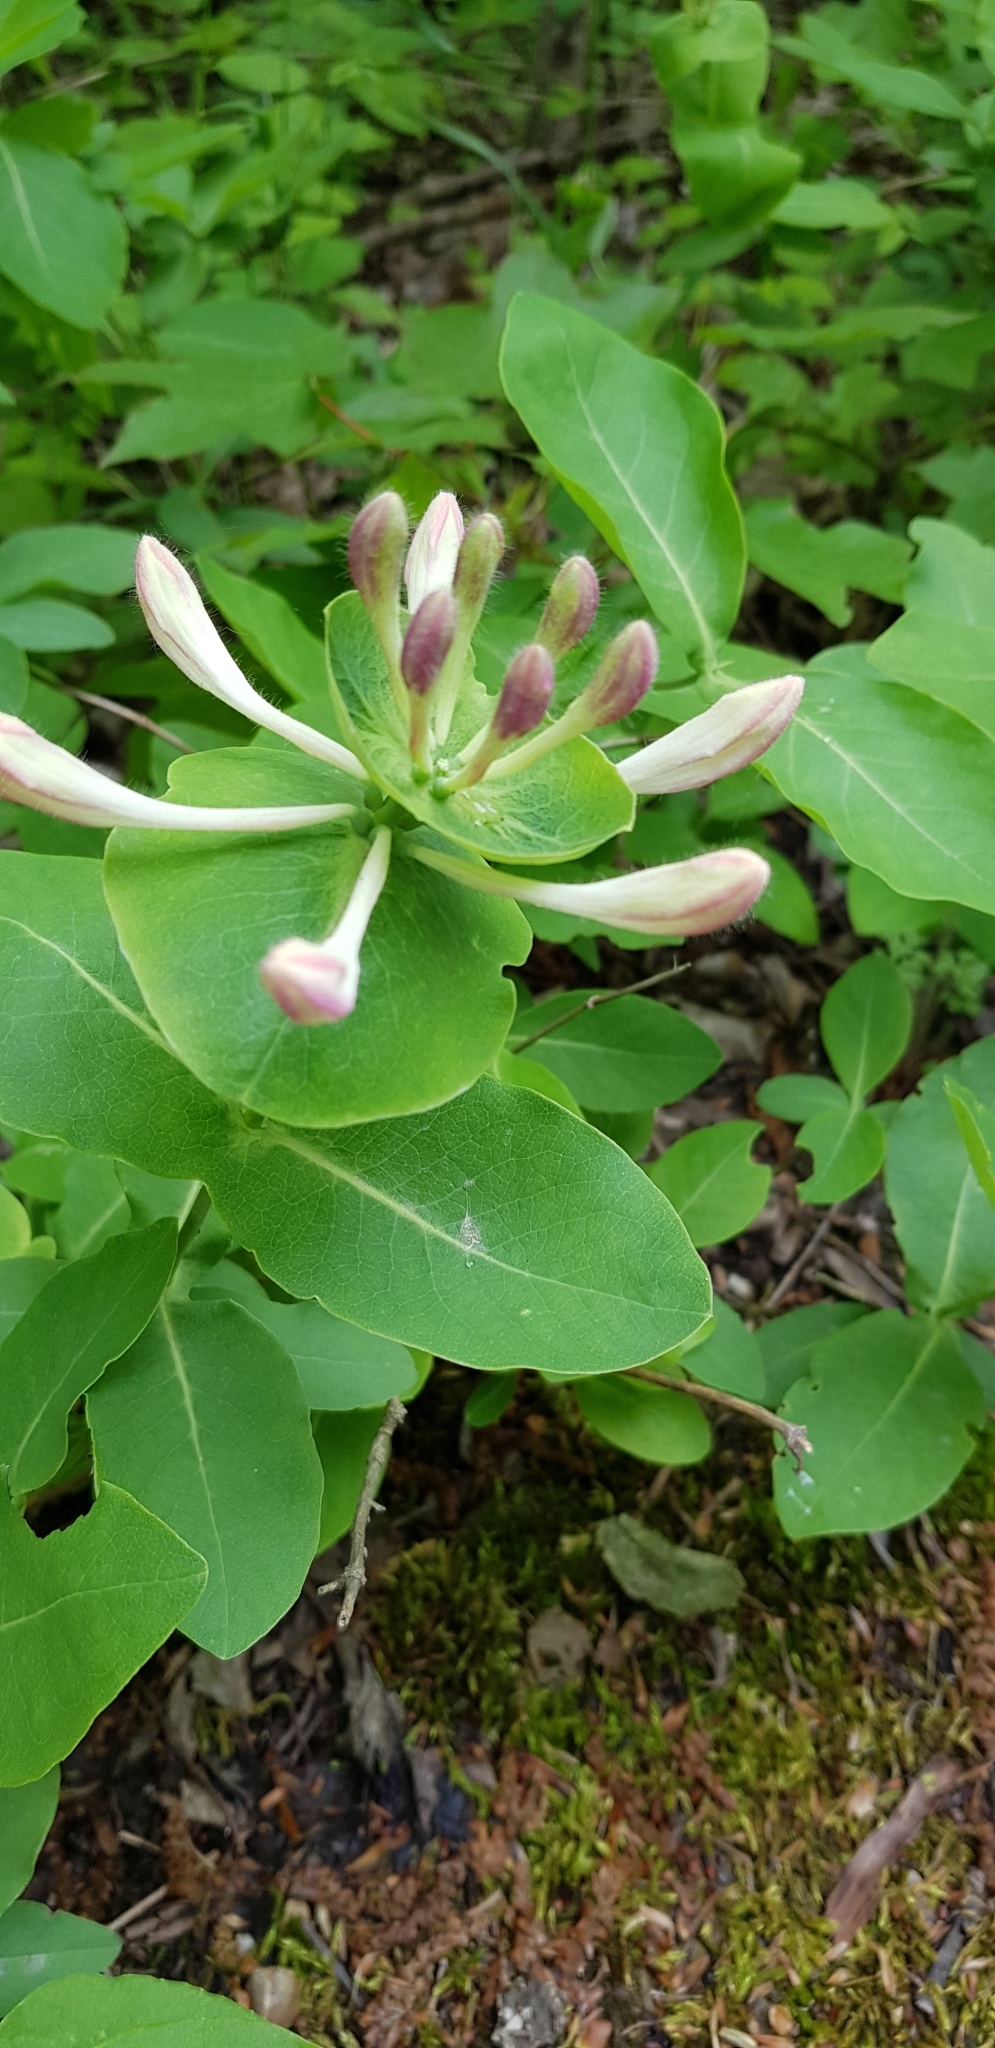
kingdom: Plantae
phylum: Tracheophyta
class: Magnoliopsida
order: Dipsacales
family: Caprifoliaceae
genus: Lonicera
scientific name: Lonicera caprifolium
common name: Perfoliate honeysuckle
